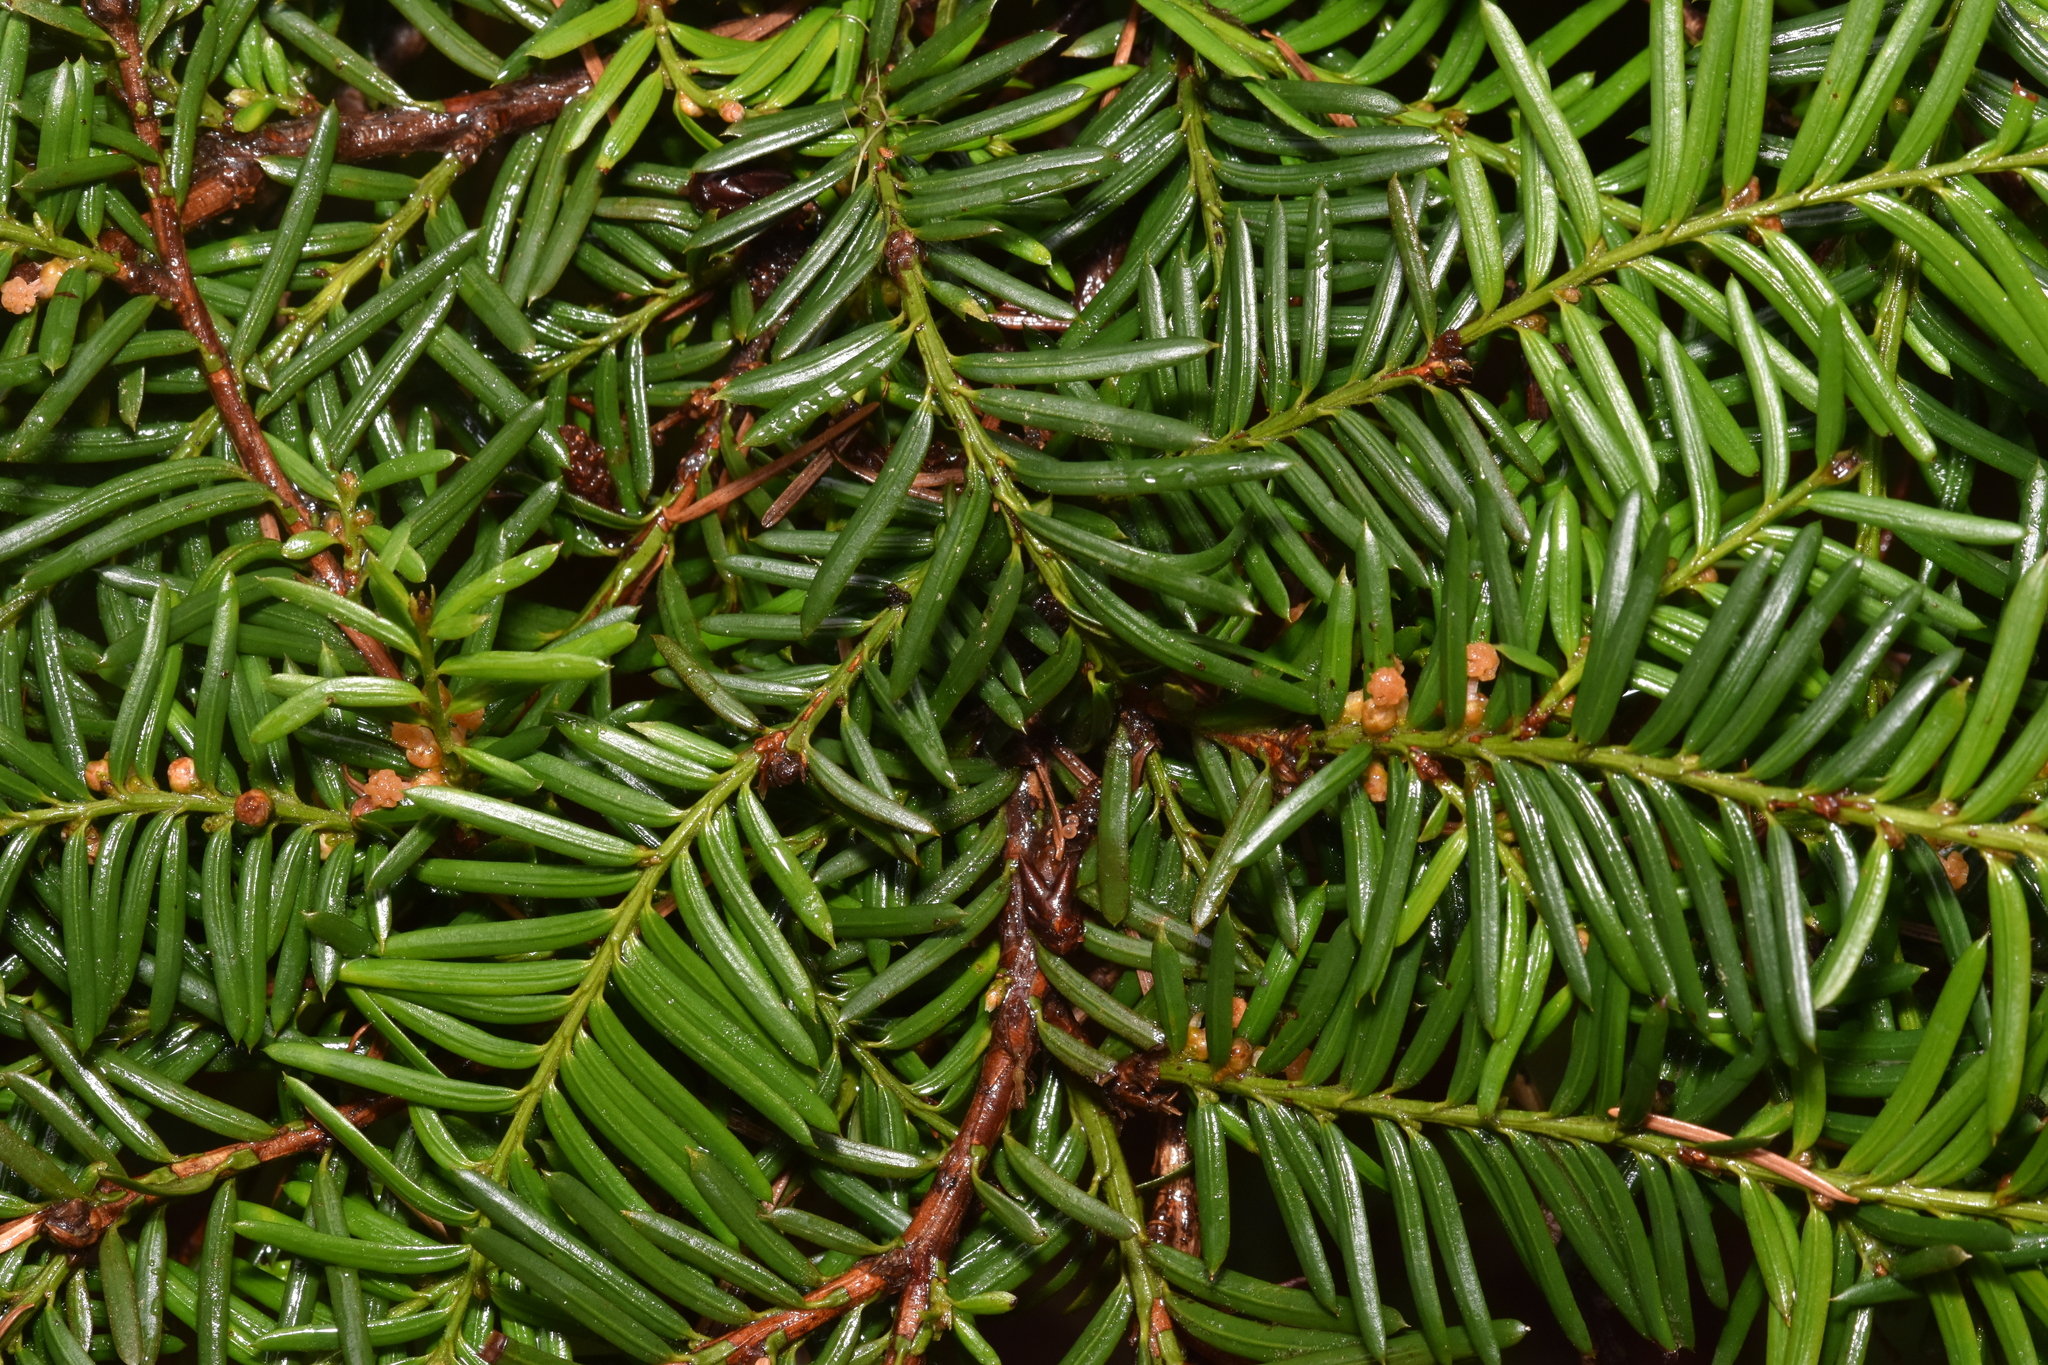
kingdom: Plantae
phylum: Tracheophyta
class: Pinopsida
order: Pinales
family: Taxaceae
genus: Taxus
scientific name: Taxus brevifolia
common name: Pacific yew
